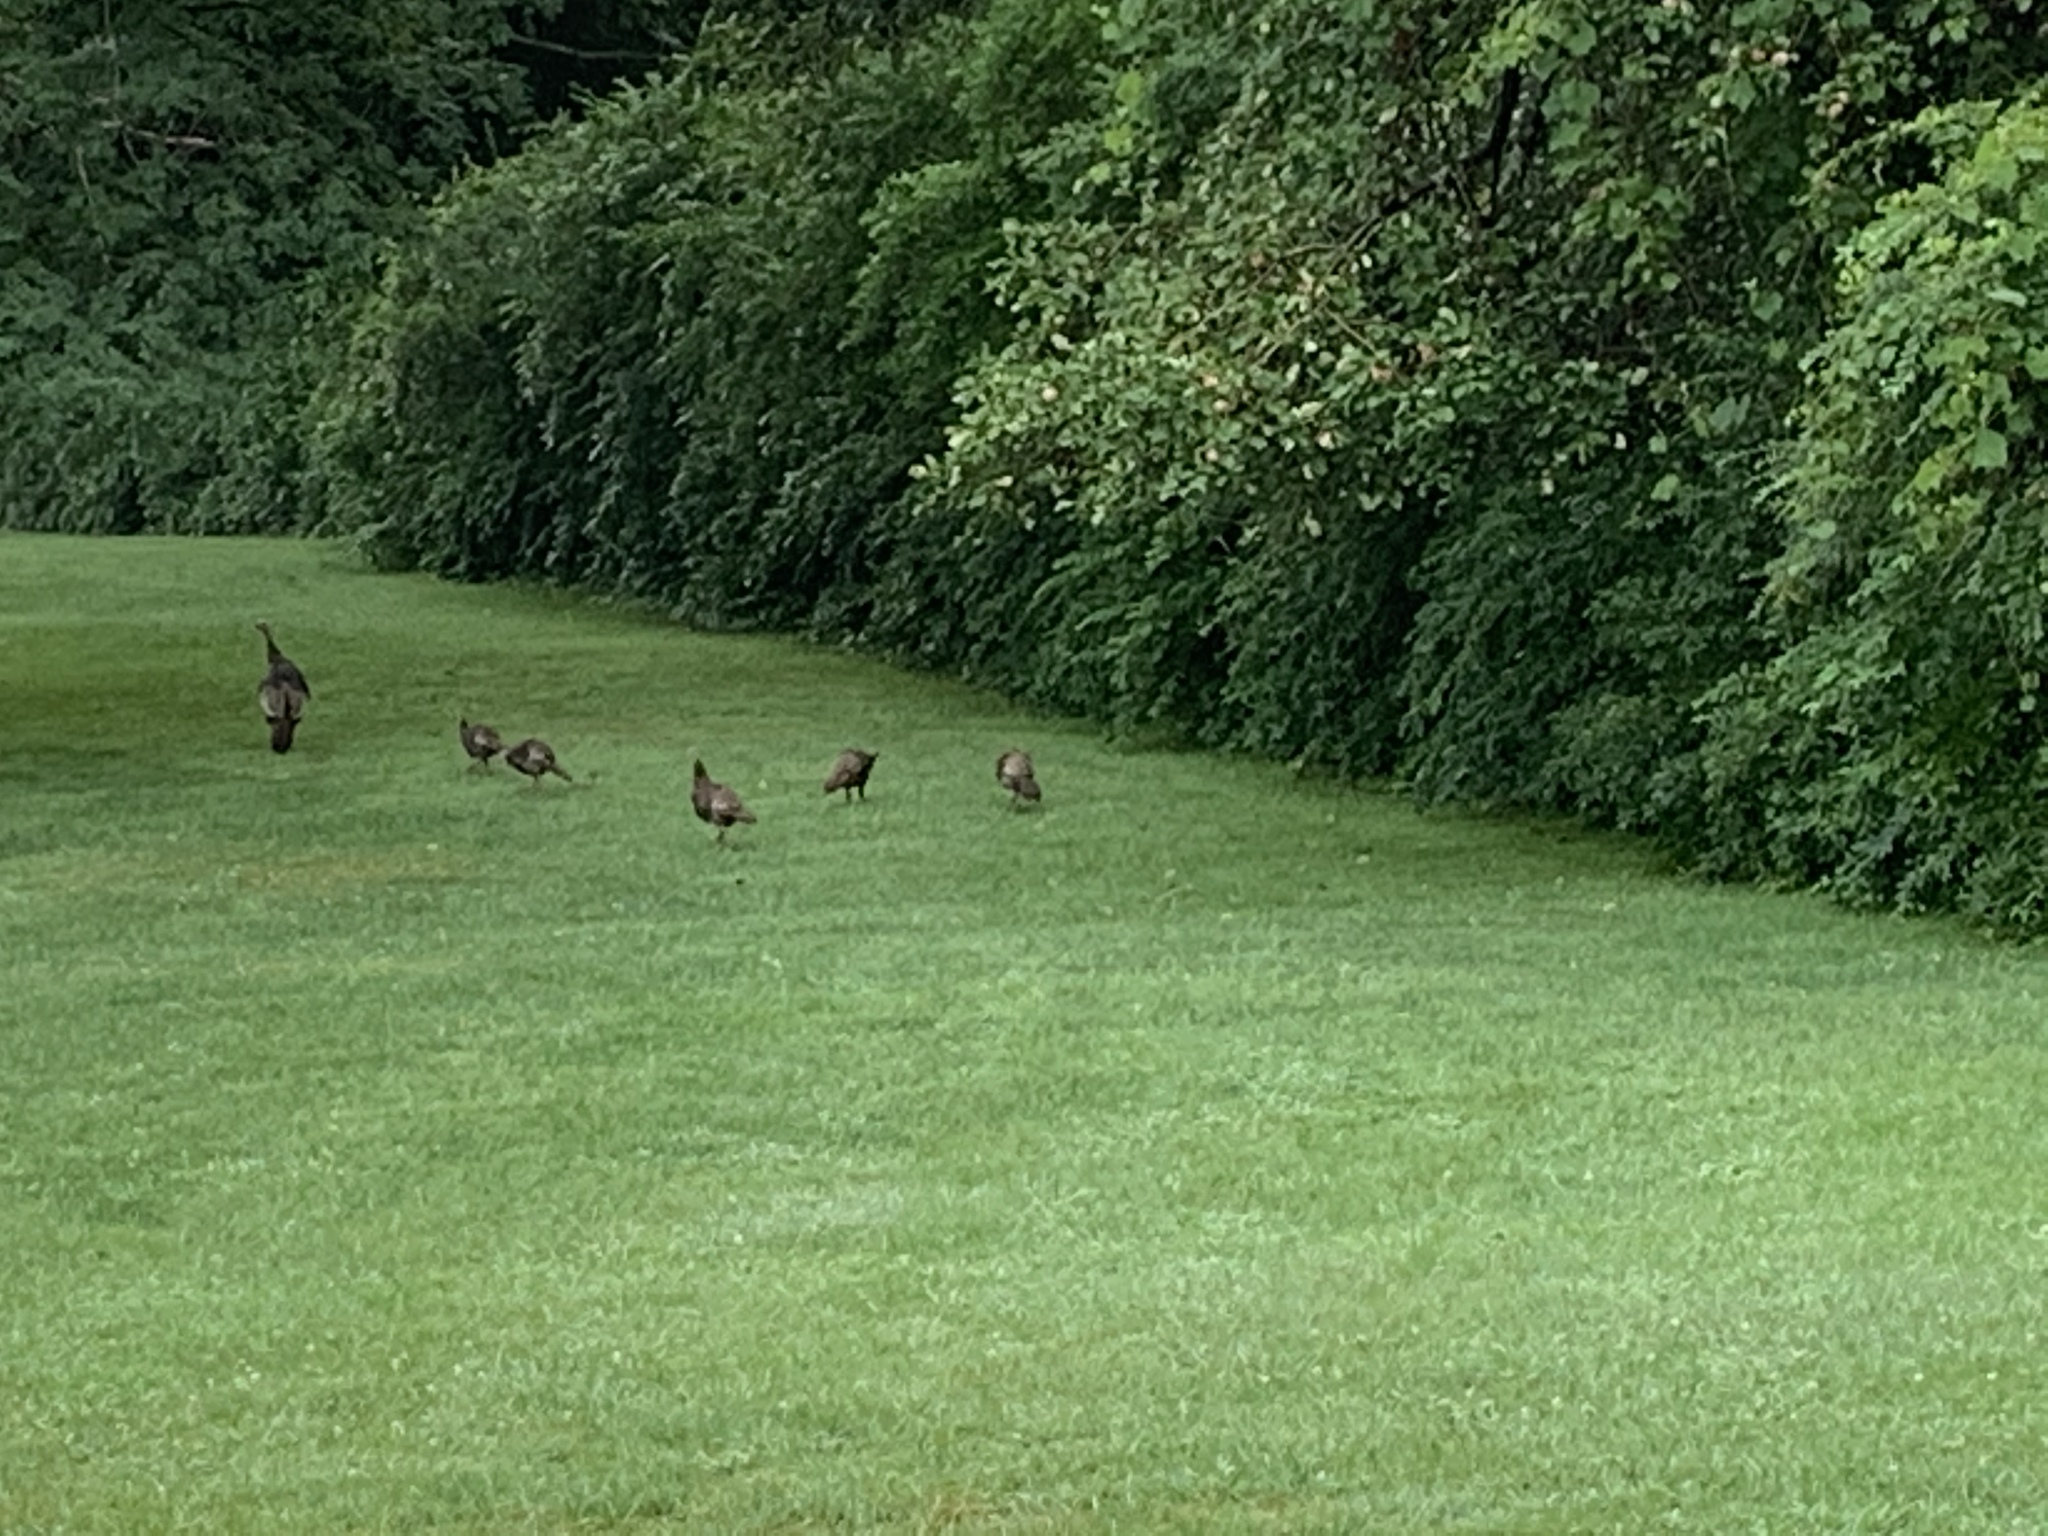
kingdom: Animalia
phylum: Chordata
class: Aves
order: Galliformes
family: Phasianidae
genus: Meleagris
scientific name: Meleagris gallopavo
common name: Wild turkey
